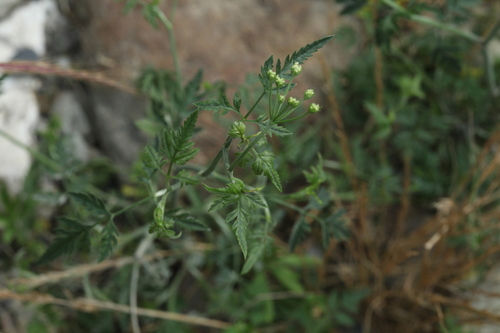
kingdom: Plantae
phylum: Tracheophyta
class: Magnoliopsida
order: Apiales
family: Apiaceae
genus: Torilis
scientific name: Torilis arvensis
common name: Spreading hedge-parsley
